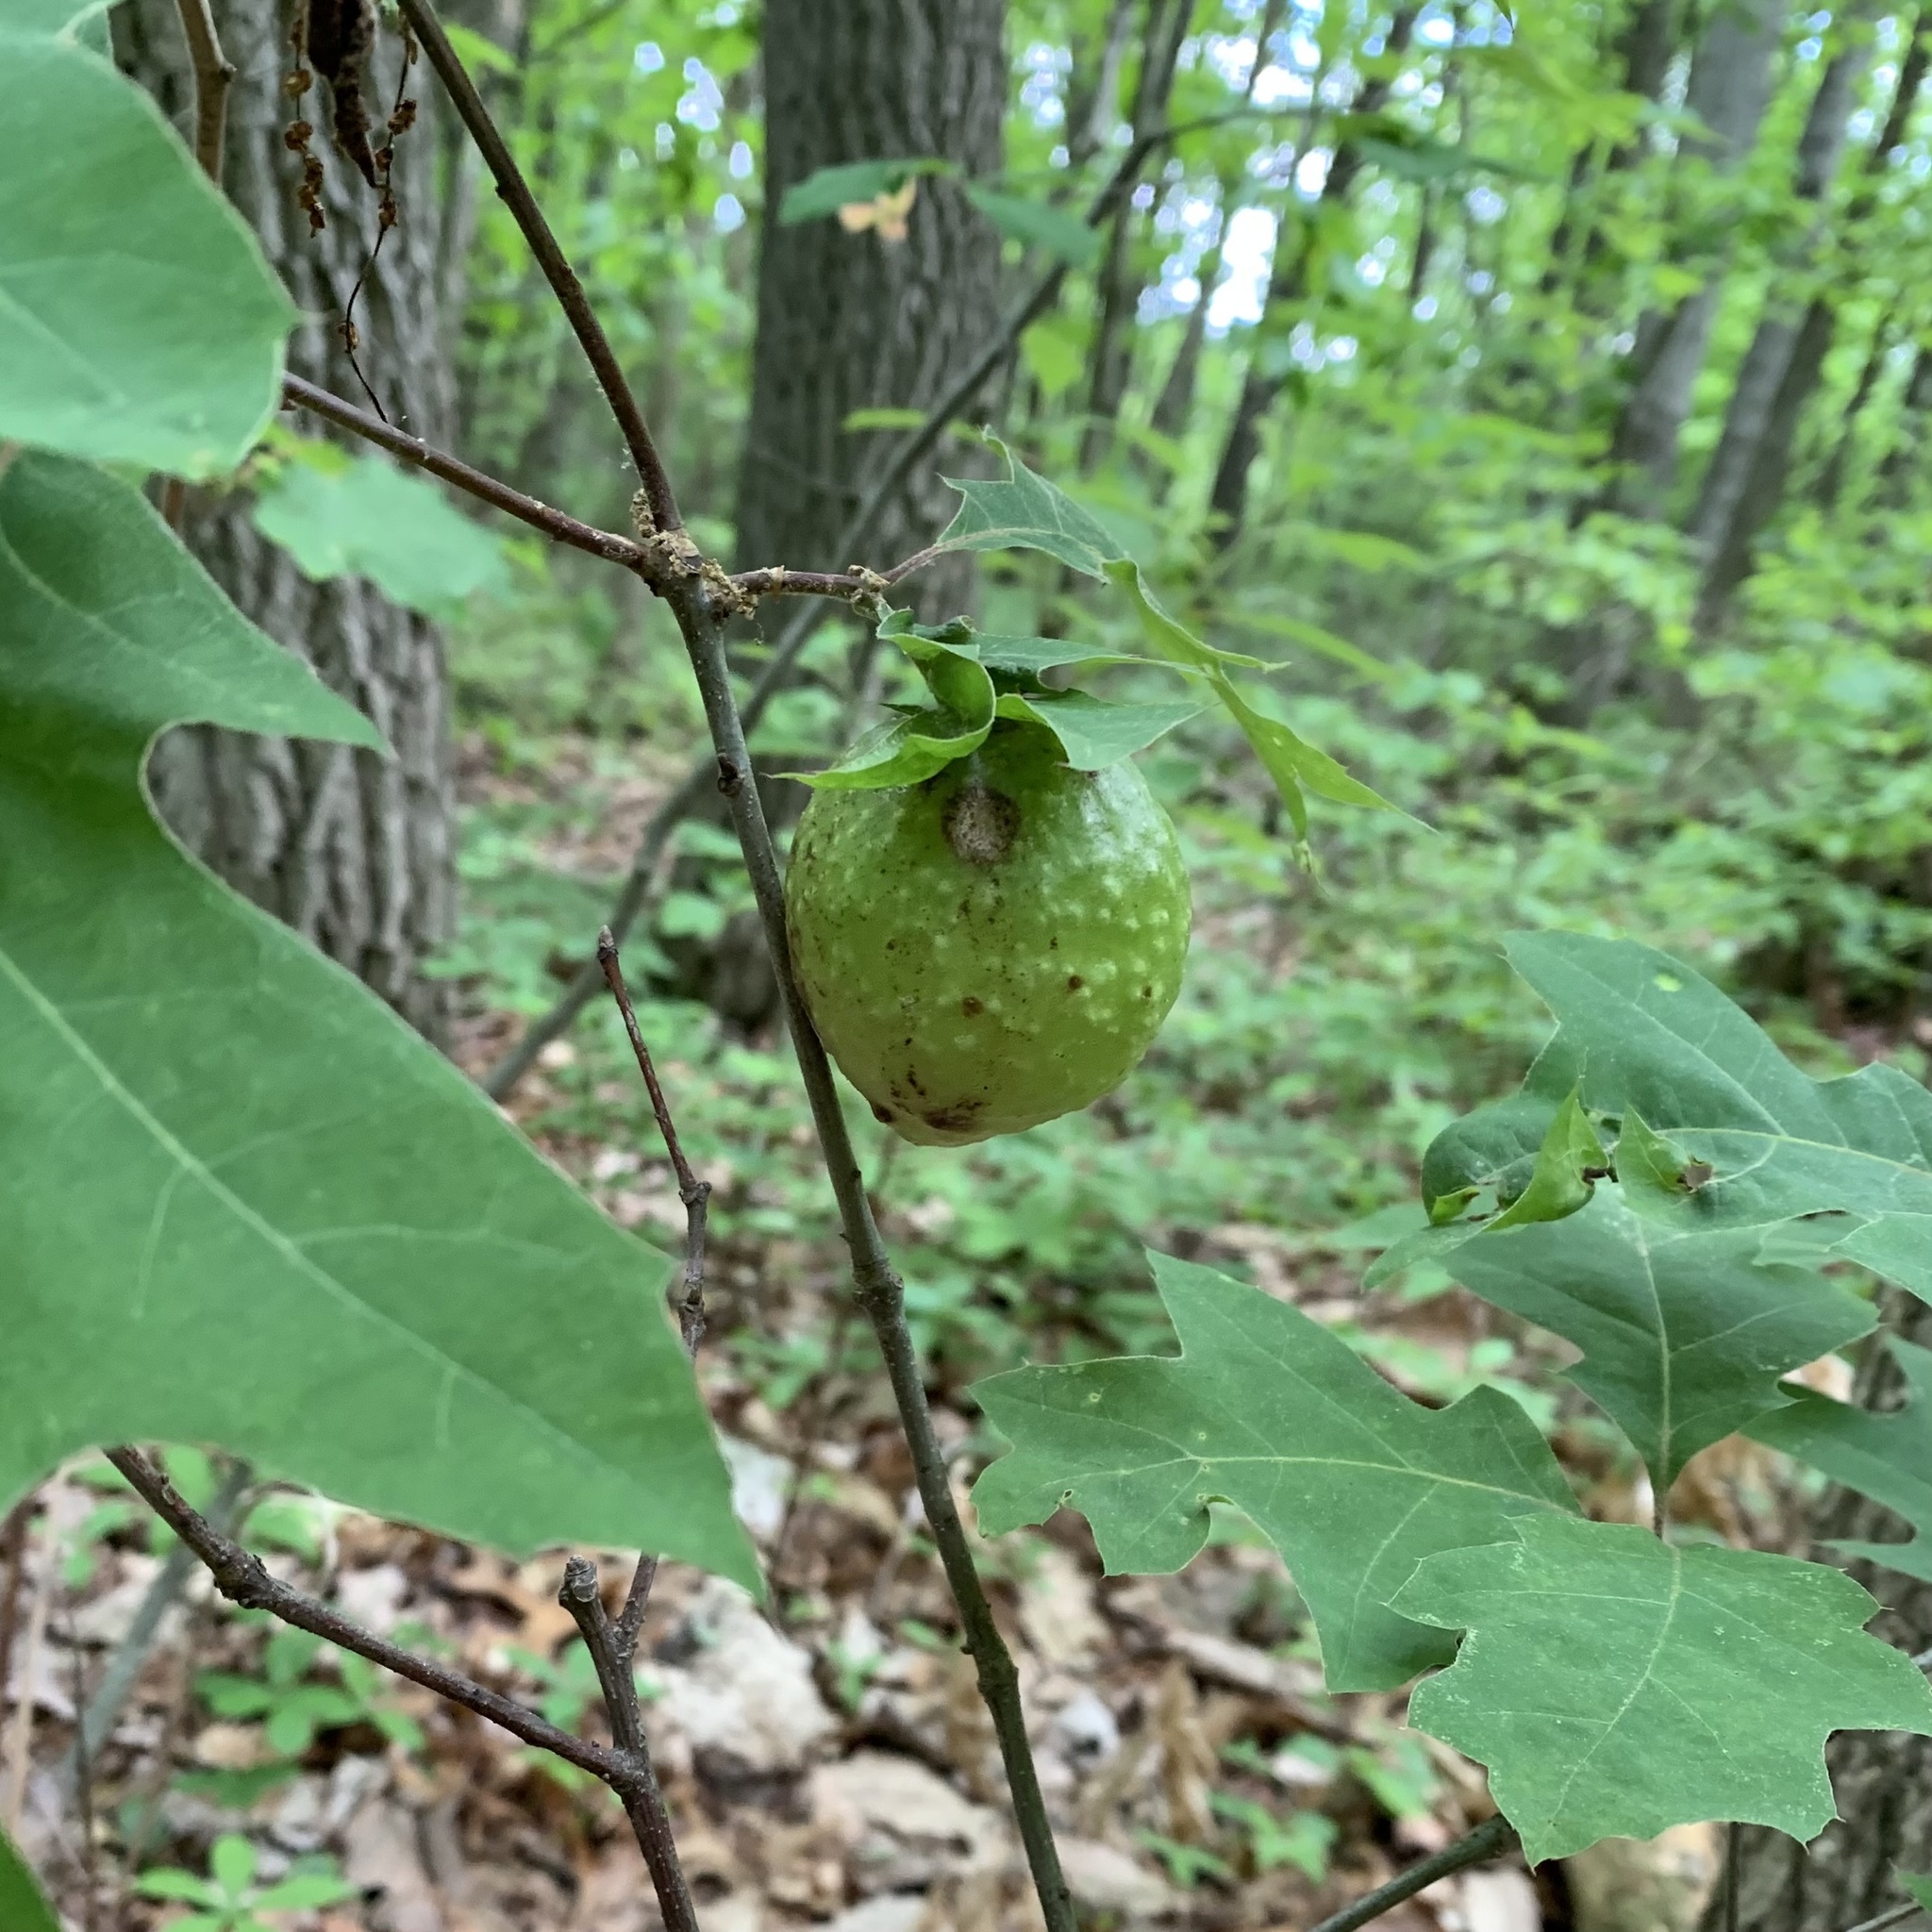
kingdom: Animalia
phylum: Arthropoda
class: Insecta
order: Hymenoptera
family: Cynipidae
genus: Amphibolips
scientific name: Amphibolips
